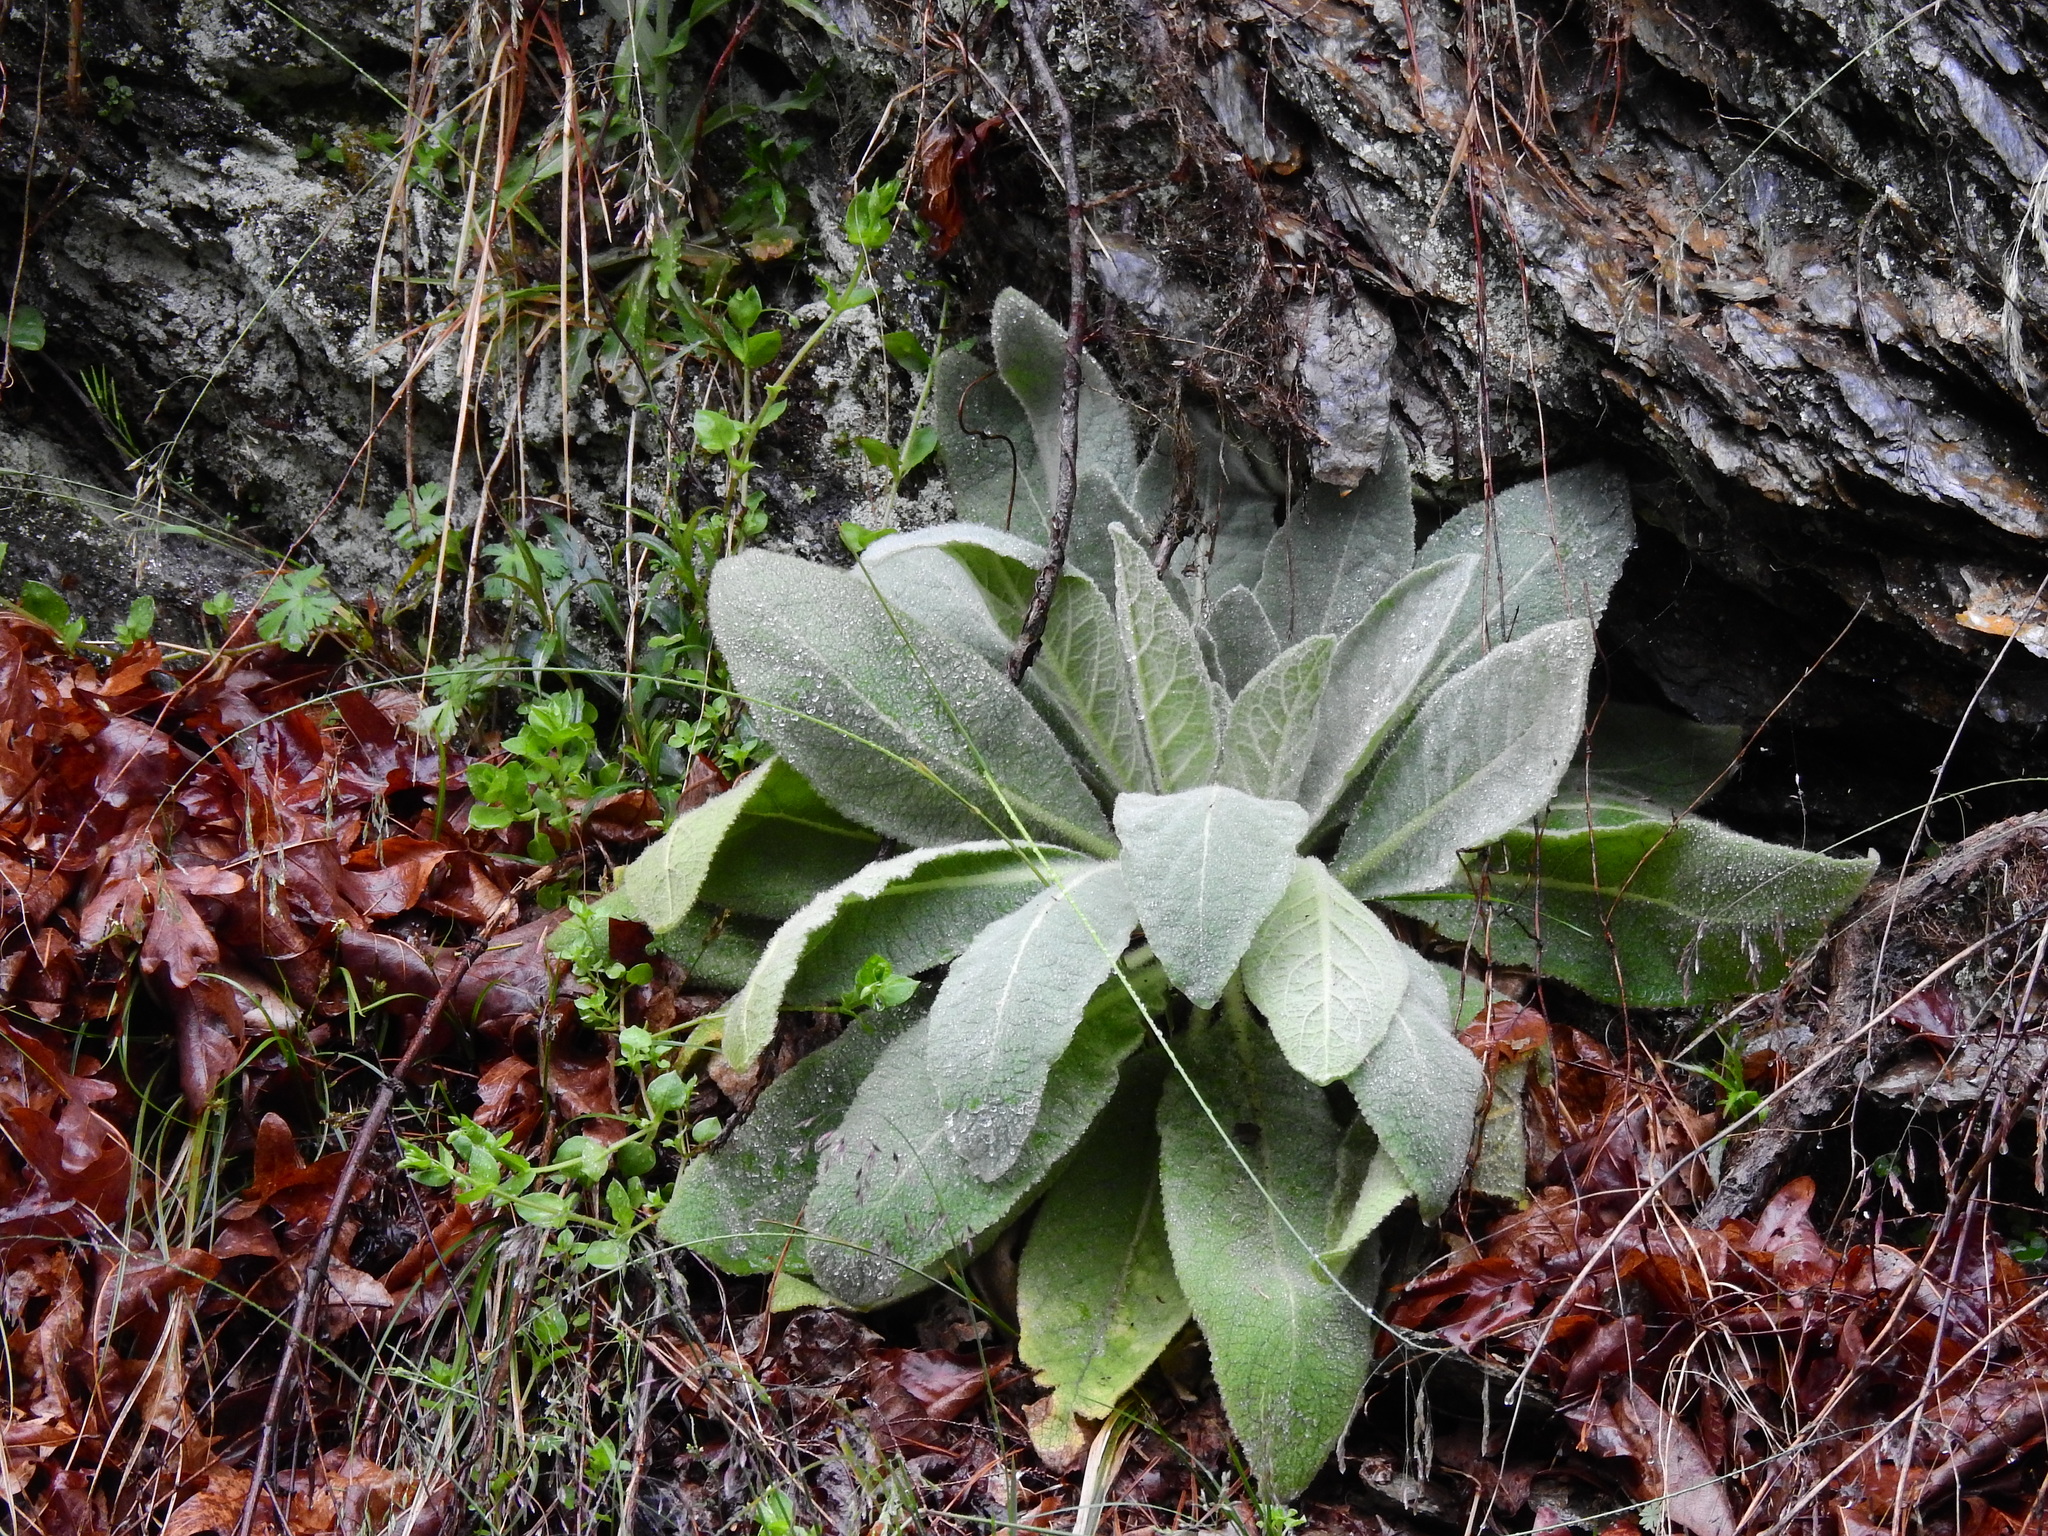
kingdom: Plantae
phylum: Tracheophyta
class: Magnoliopsida
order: Lamiales
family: Scrophulariaceae
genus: Verbascum
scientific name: Verbascum thapsus
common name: Common mullein
